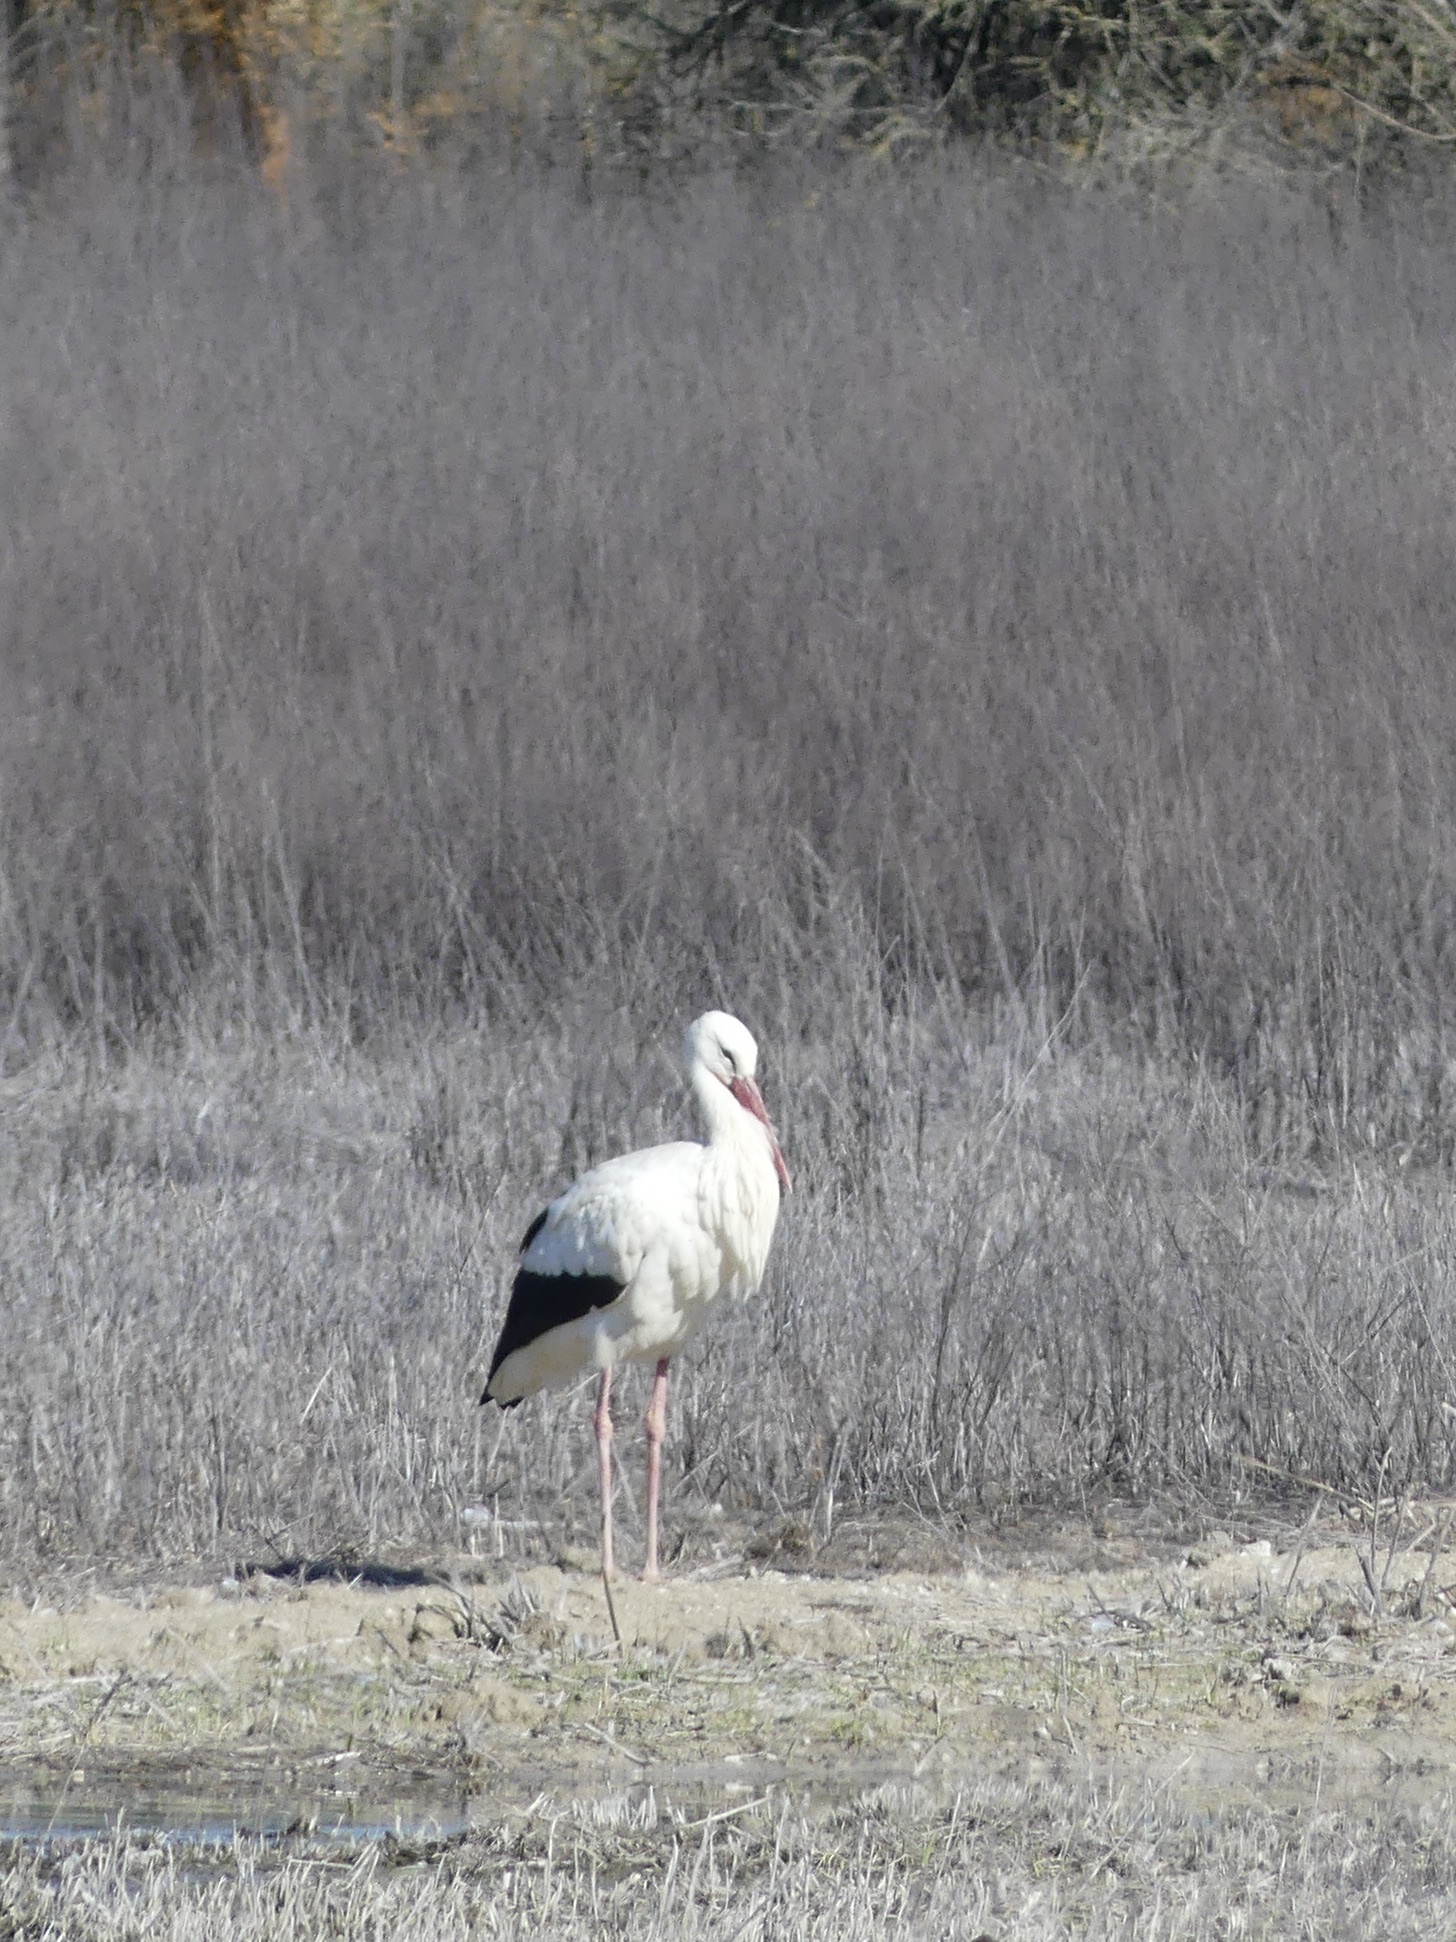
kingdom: Animalia
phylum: Chordata
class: Aves
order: Ciconiiformes
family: Ciconiidae
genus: Ciconia
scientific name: Ciconia ciconia
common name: White stork
